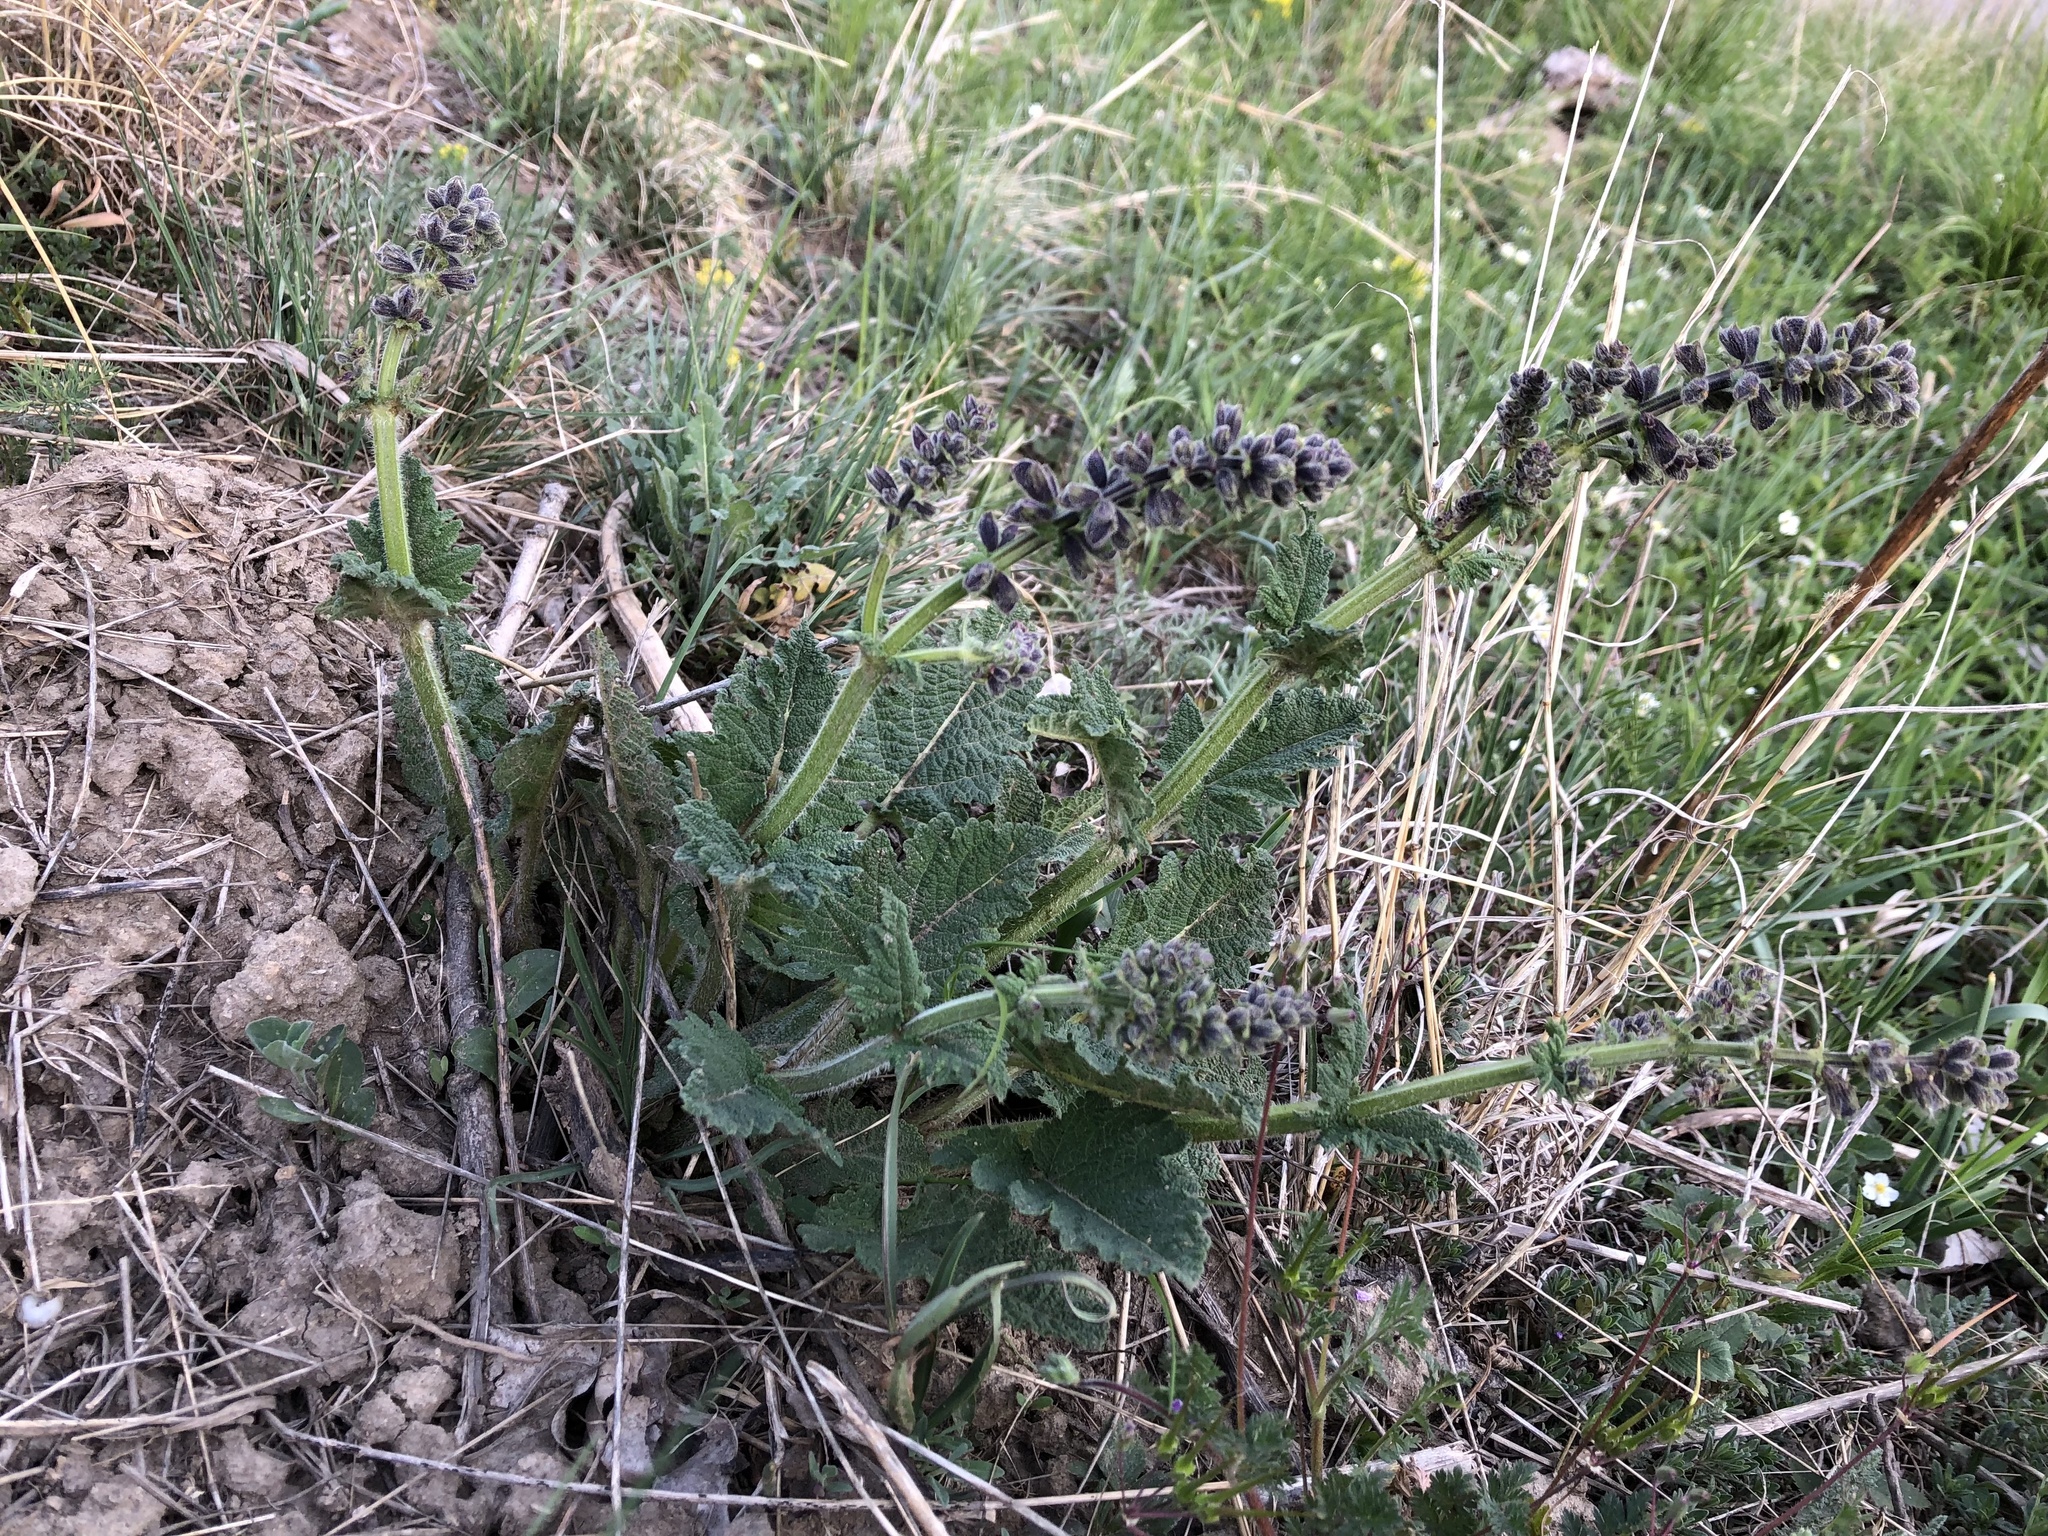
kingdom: Plantae
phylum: Tracheophyta
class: Magnoliopsida
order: Lamiales
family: Lamiaceae
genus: Salvia
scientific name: Salvia pratensis
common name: Meadow sage
